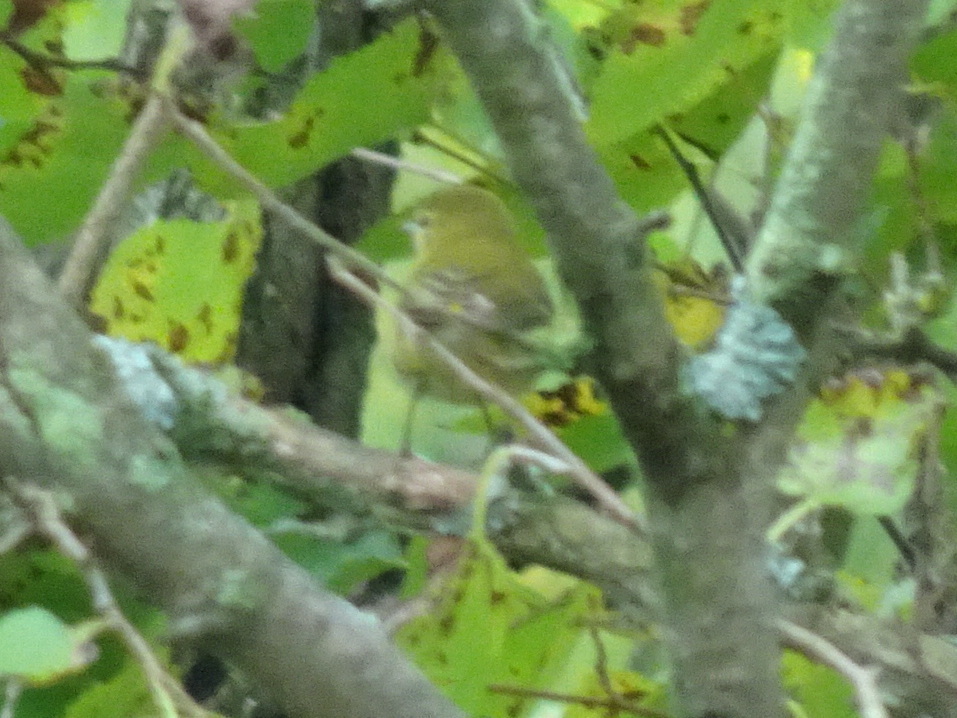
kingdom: Animalia
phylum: Chordata
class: Aves
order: Passeriformes
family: Parulidae
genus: Leiothlypis
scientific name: Leiothlypis peregrina
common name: Tennessee warbler
